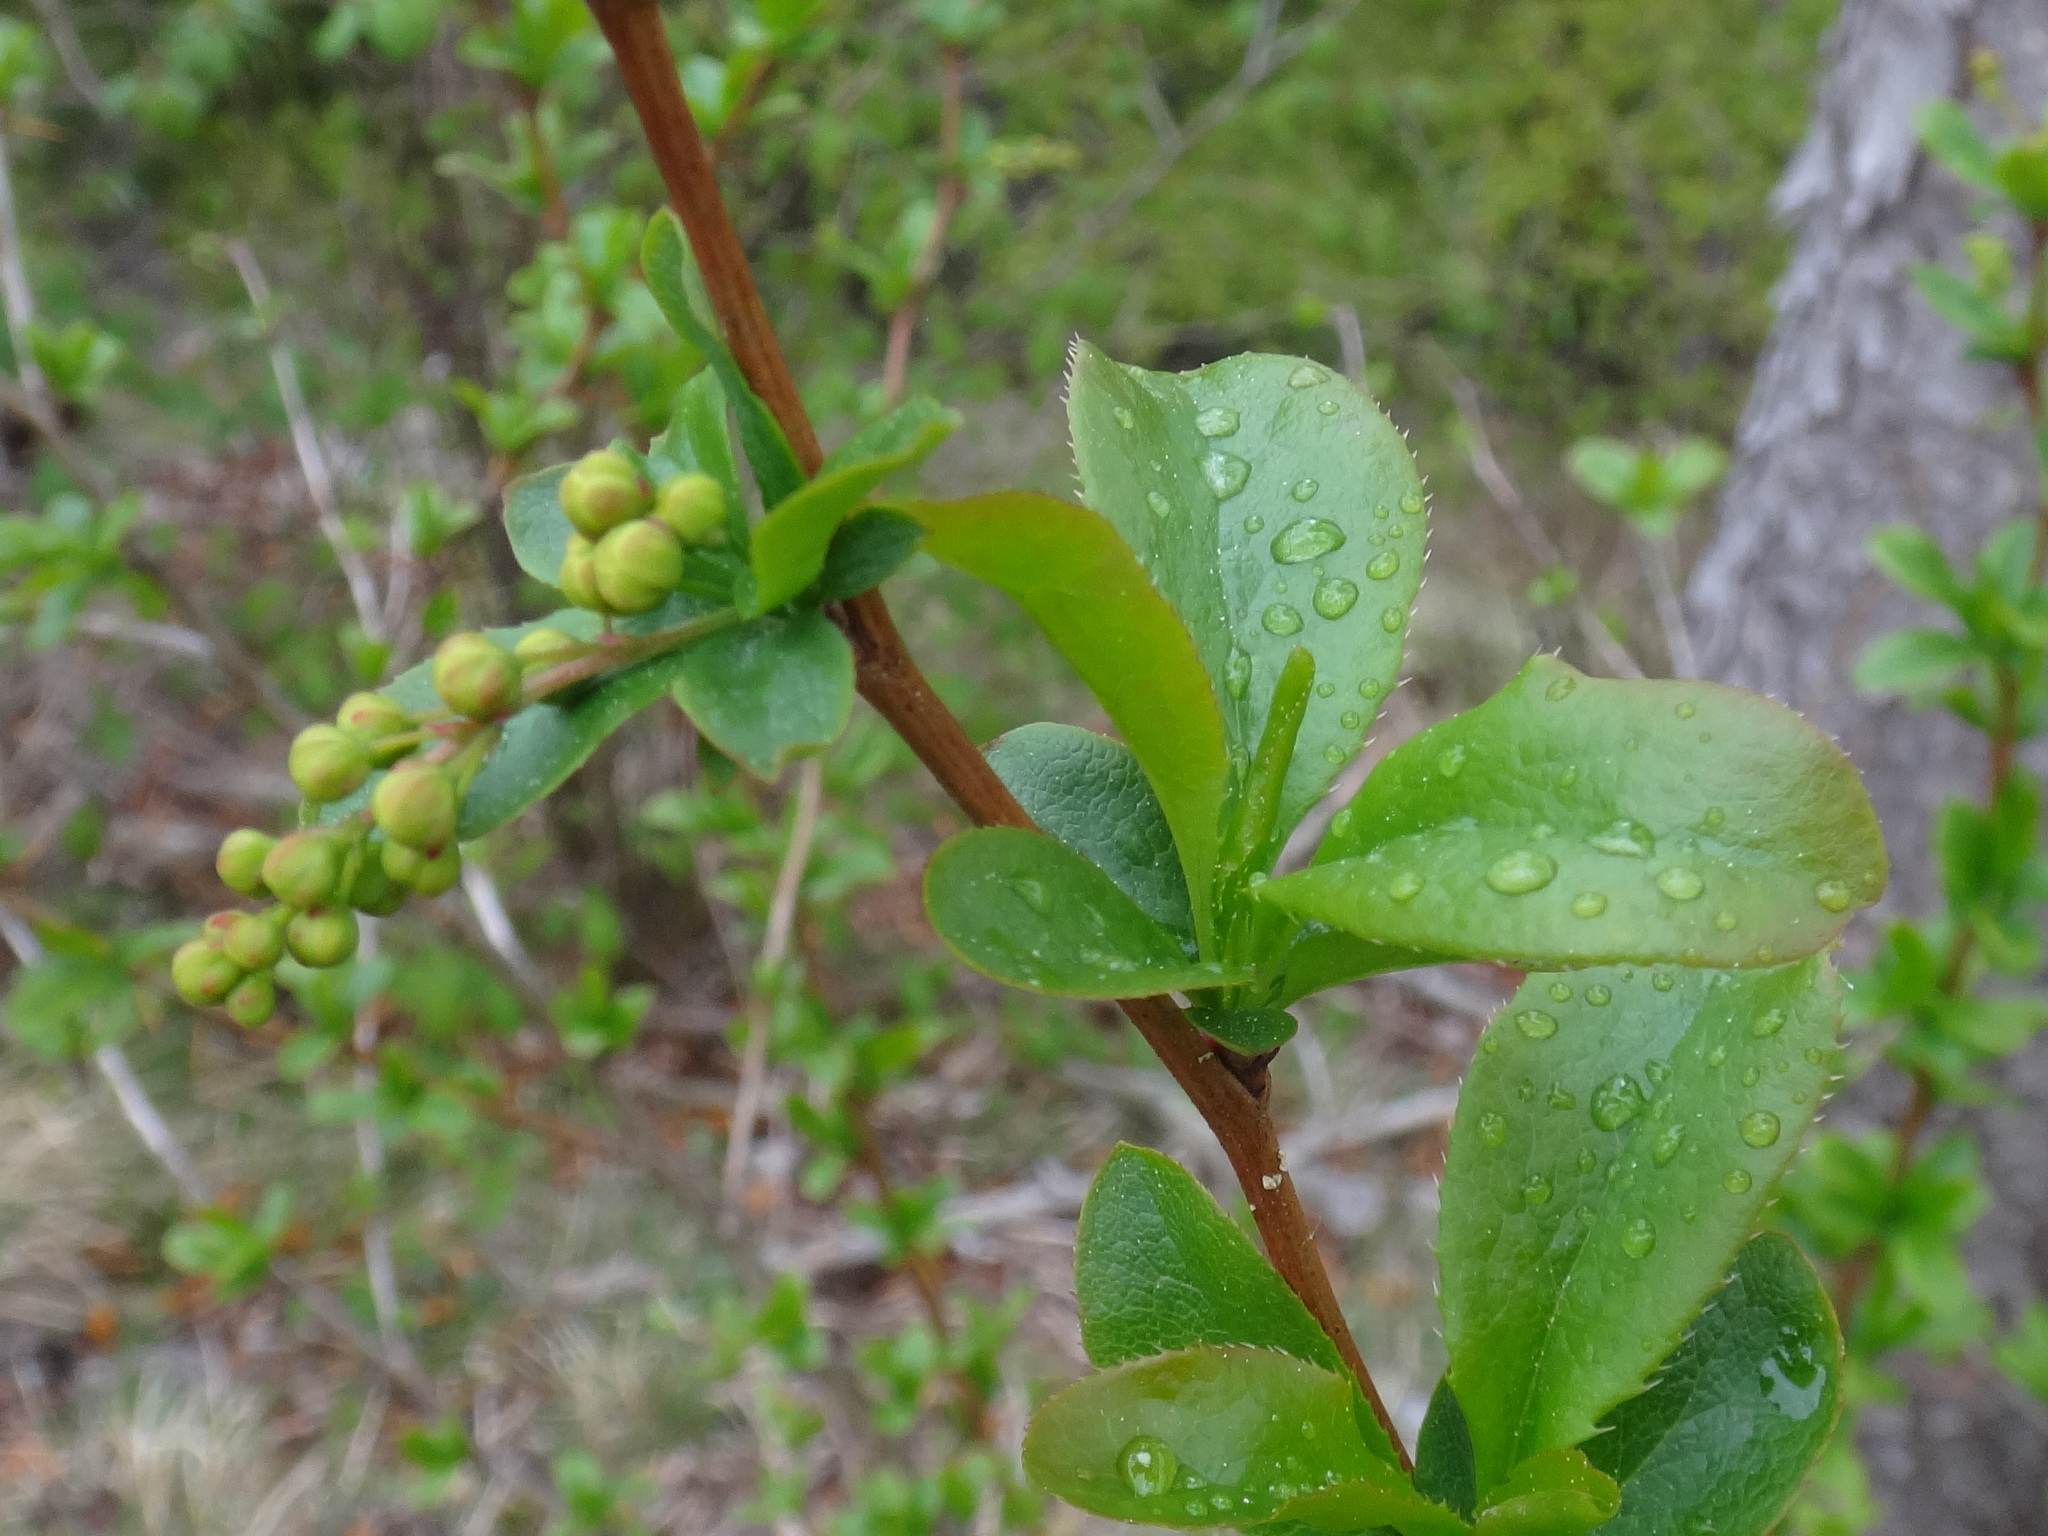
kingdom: Plantae
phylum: Tracheophyta
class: Magnoliopsida
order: Ranunculales
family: Berberidaceae
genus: Berberis
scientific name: Berberis vulgaris
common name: Barberry
